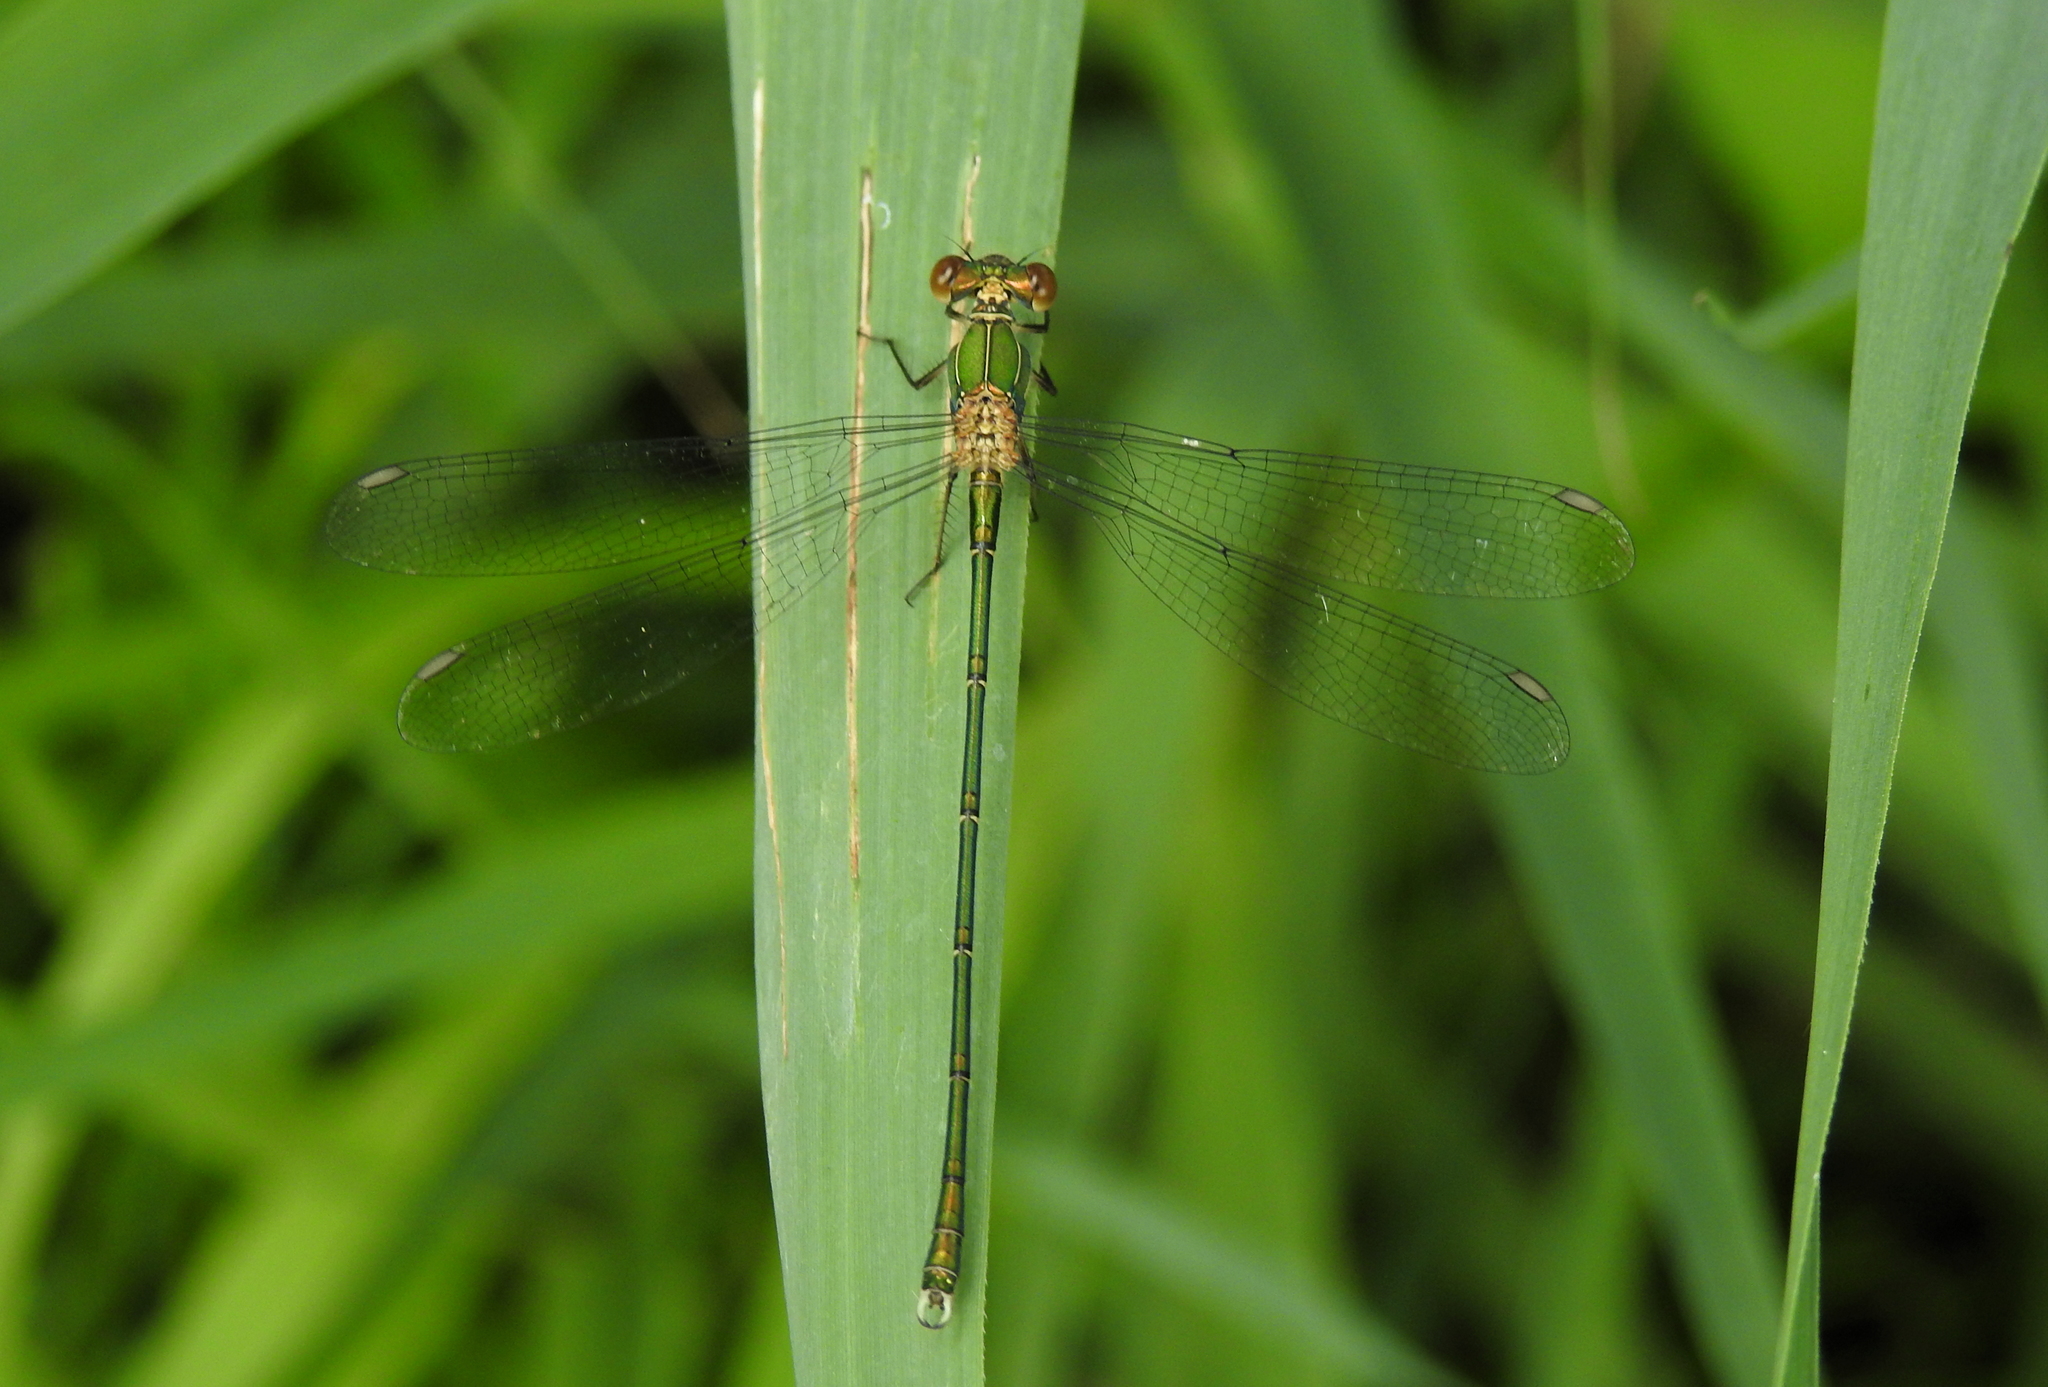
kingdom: Animalia
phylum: Arthropoda
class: Insecta
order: Odonata
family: Lestidae
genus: Chalcolestes
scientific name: Chalcolestes viridis
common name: Green emerald damselfly
